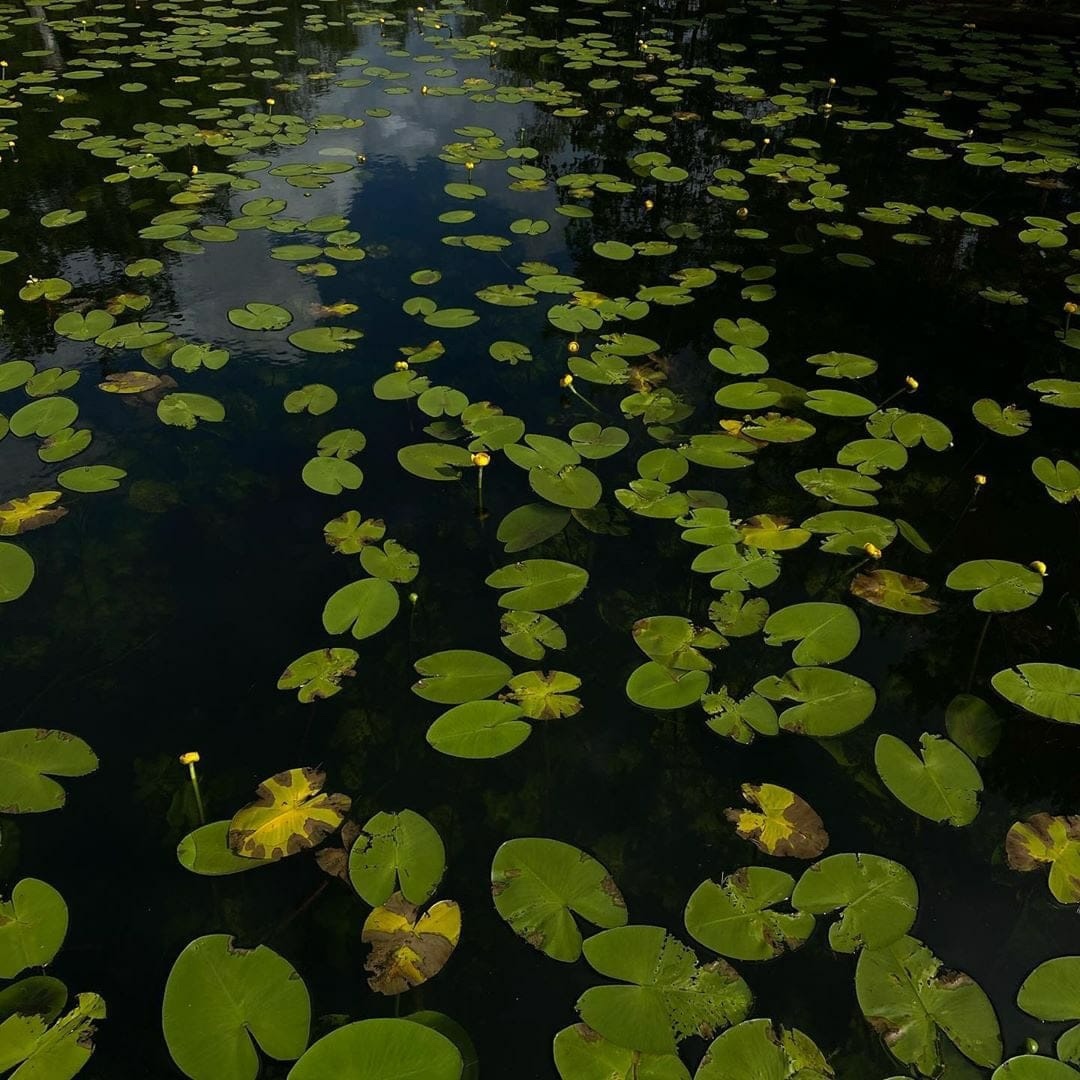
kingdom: Plantae
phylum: Tracheophyta
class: Magnoliopsida
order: Nymphaeales
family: Nymphaeaceae
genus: Nuphar
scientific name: Nuphar lutea
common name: Yellow water-lily
